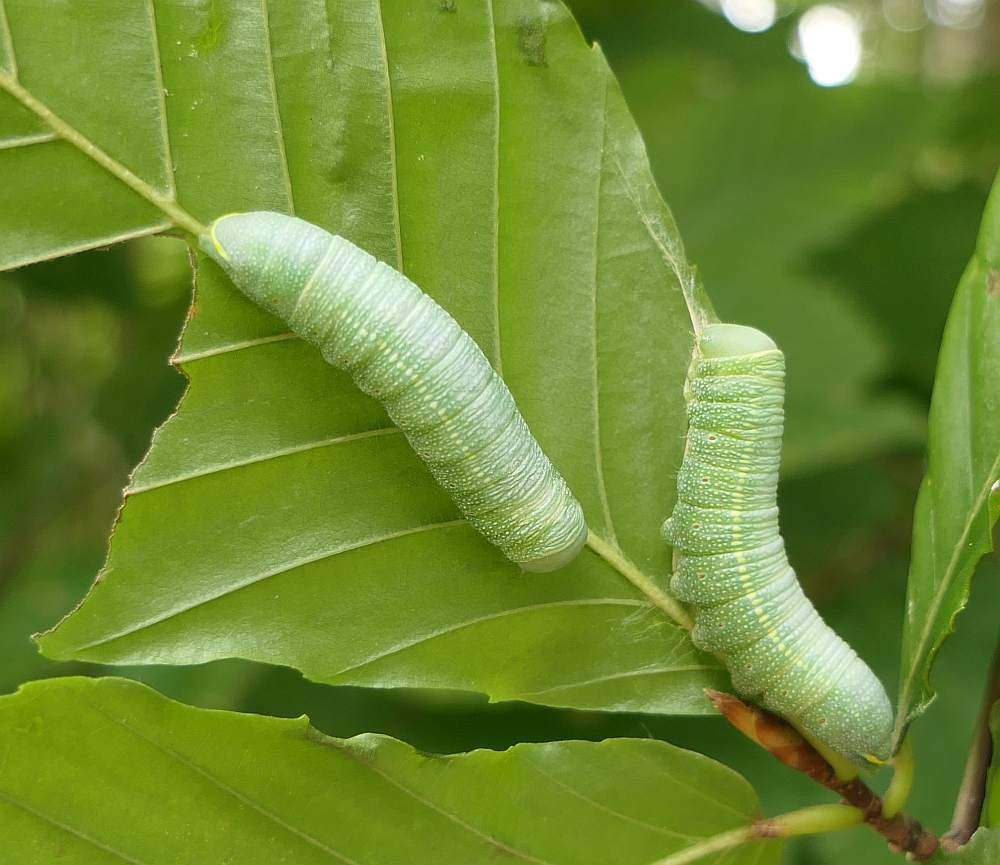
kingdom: Animalia
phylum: Arthropoda
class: Insecta
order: Lepidoptera
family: Notodontidae
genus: Nadata
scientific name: Nadata gibbosa
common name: White-dotted prominent
